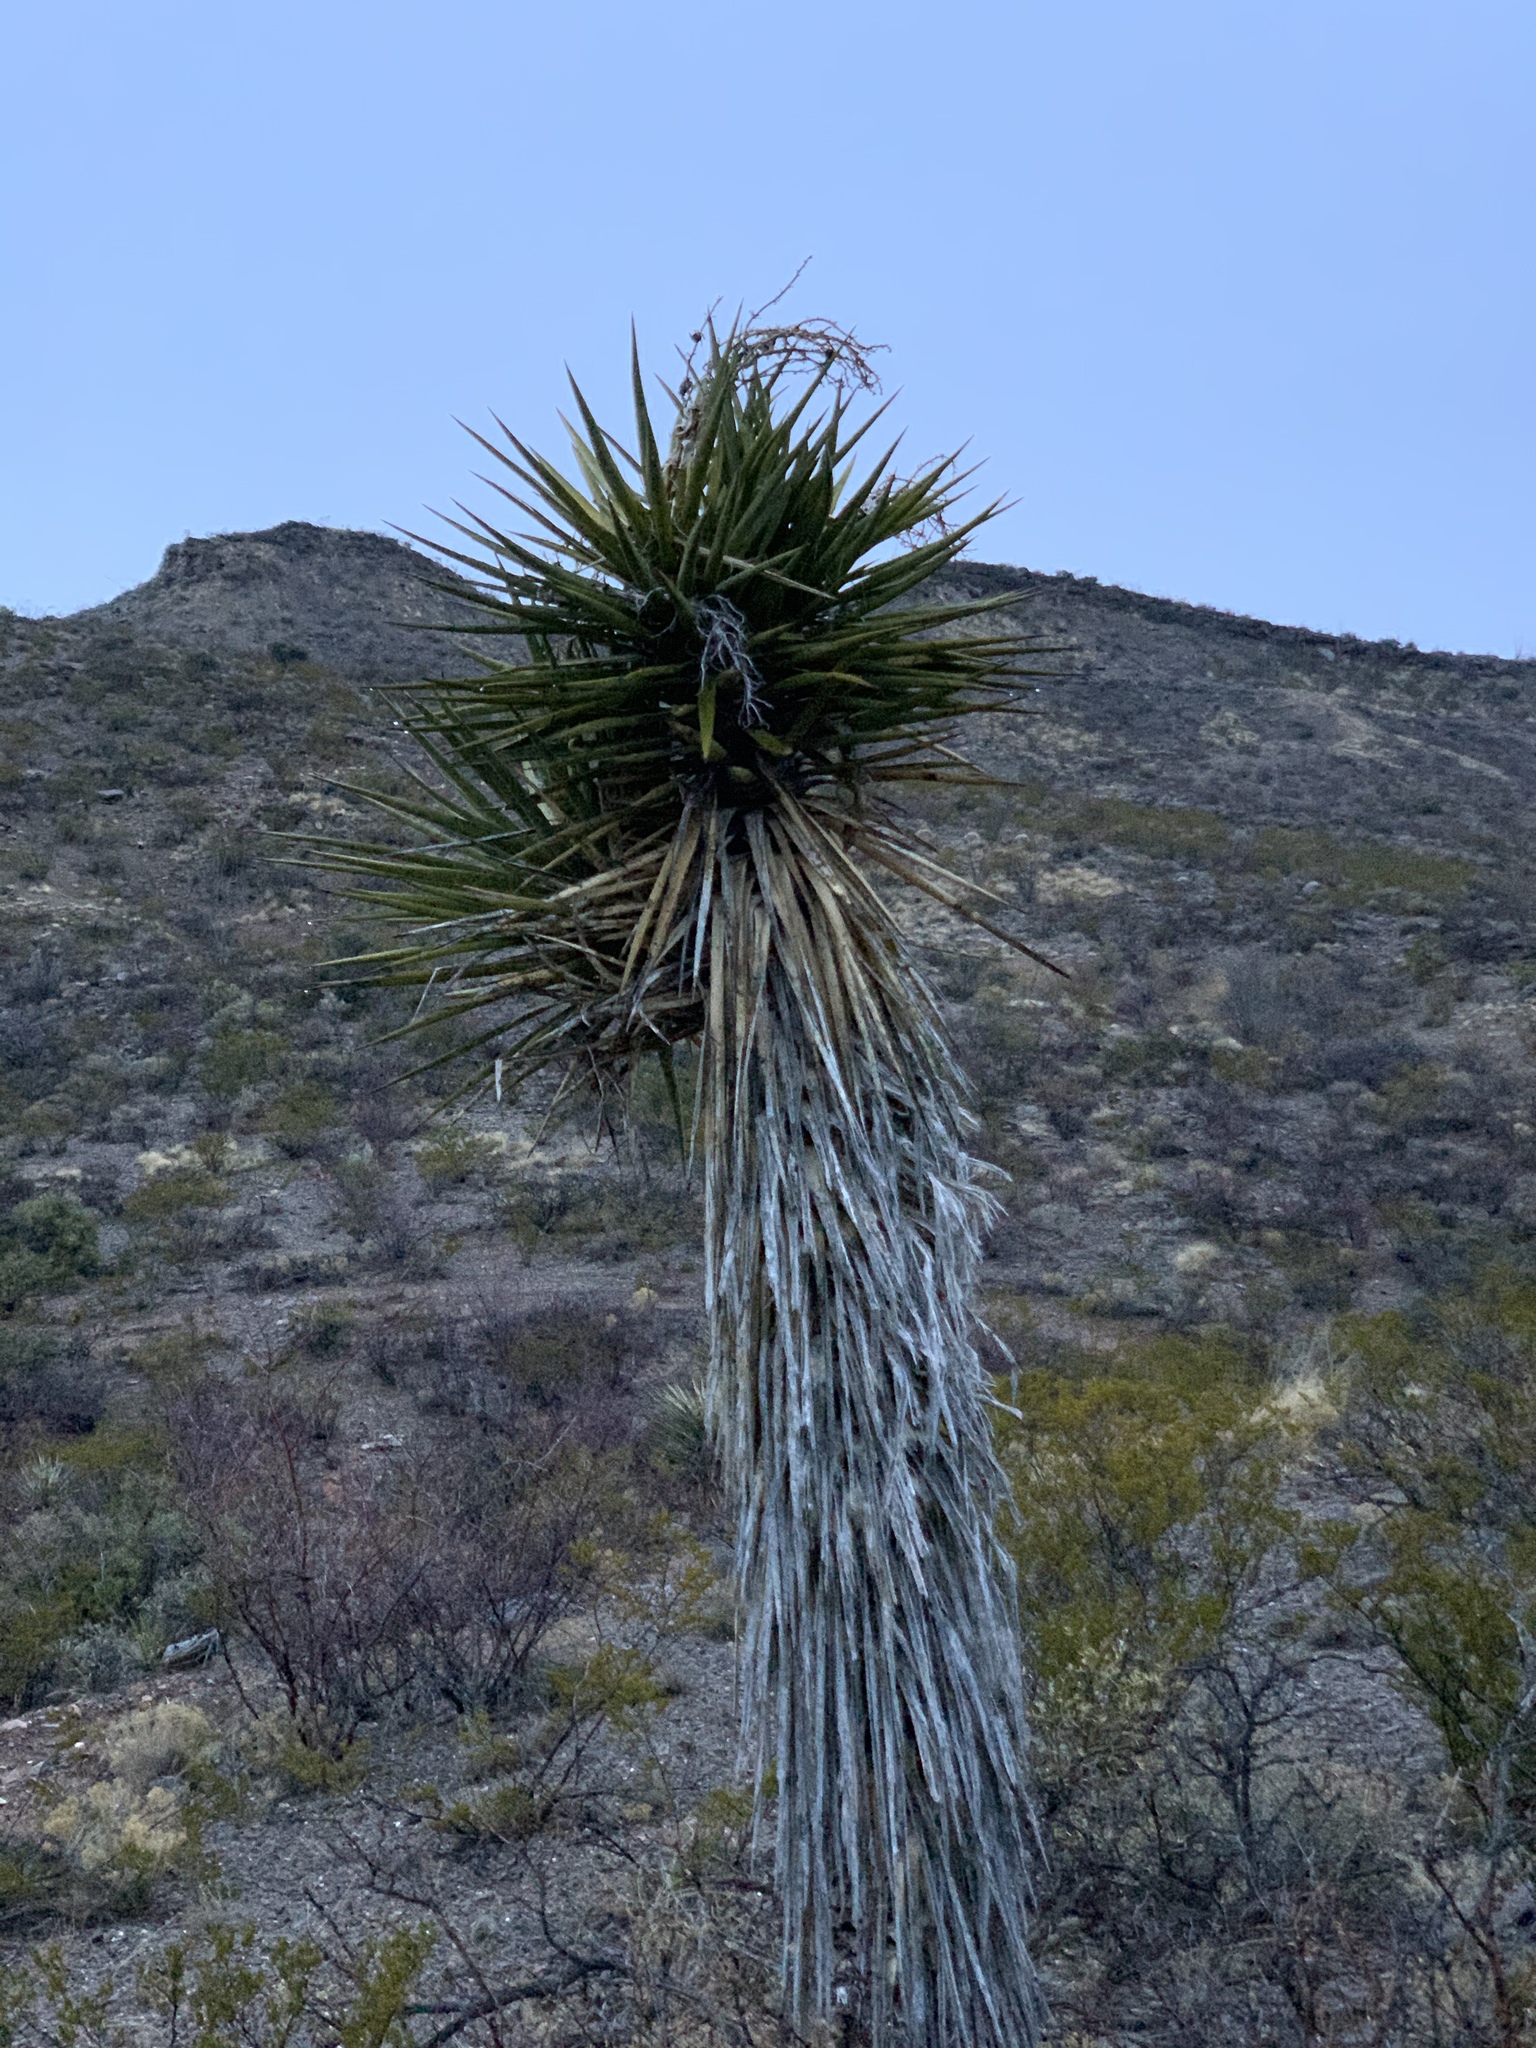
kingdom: Plantae
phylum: Tracheophyta
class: Liliopsida
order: Asparagales
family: Asparagaceae
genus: Yucca
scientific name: Yucca treculiana
